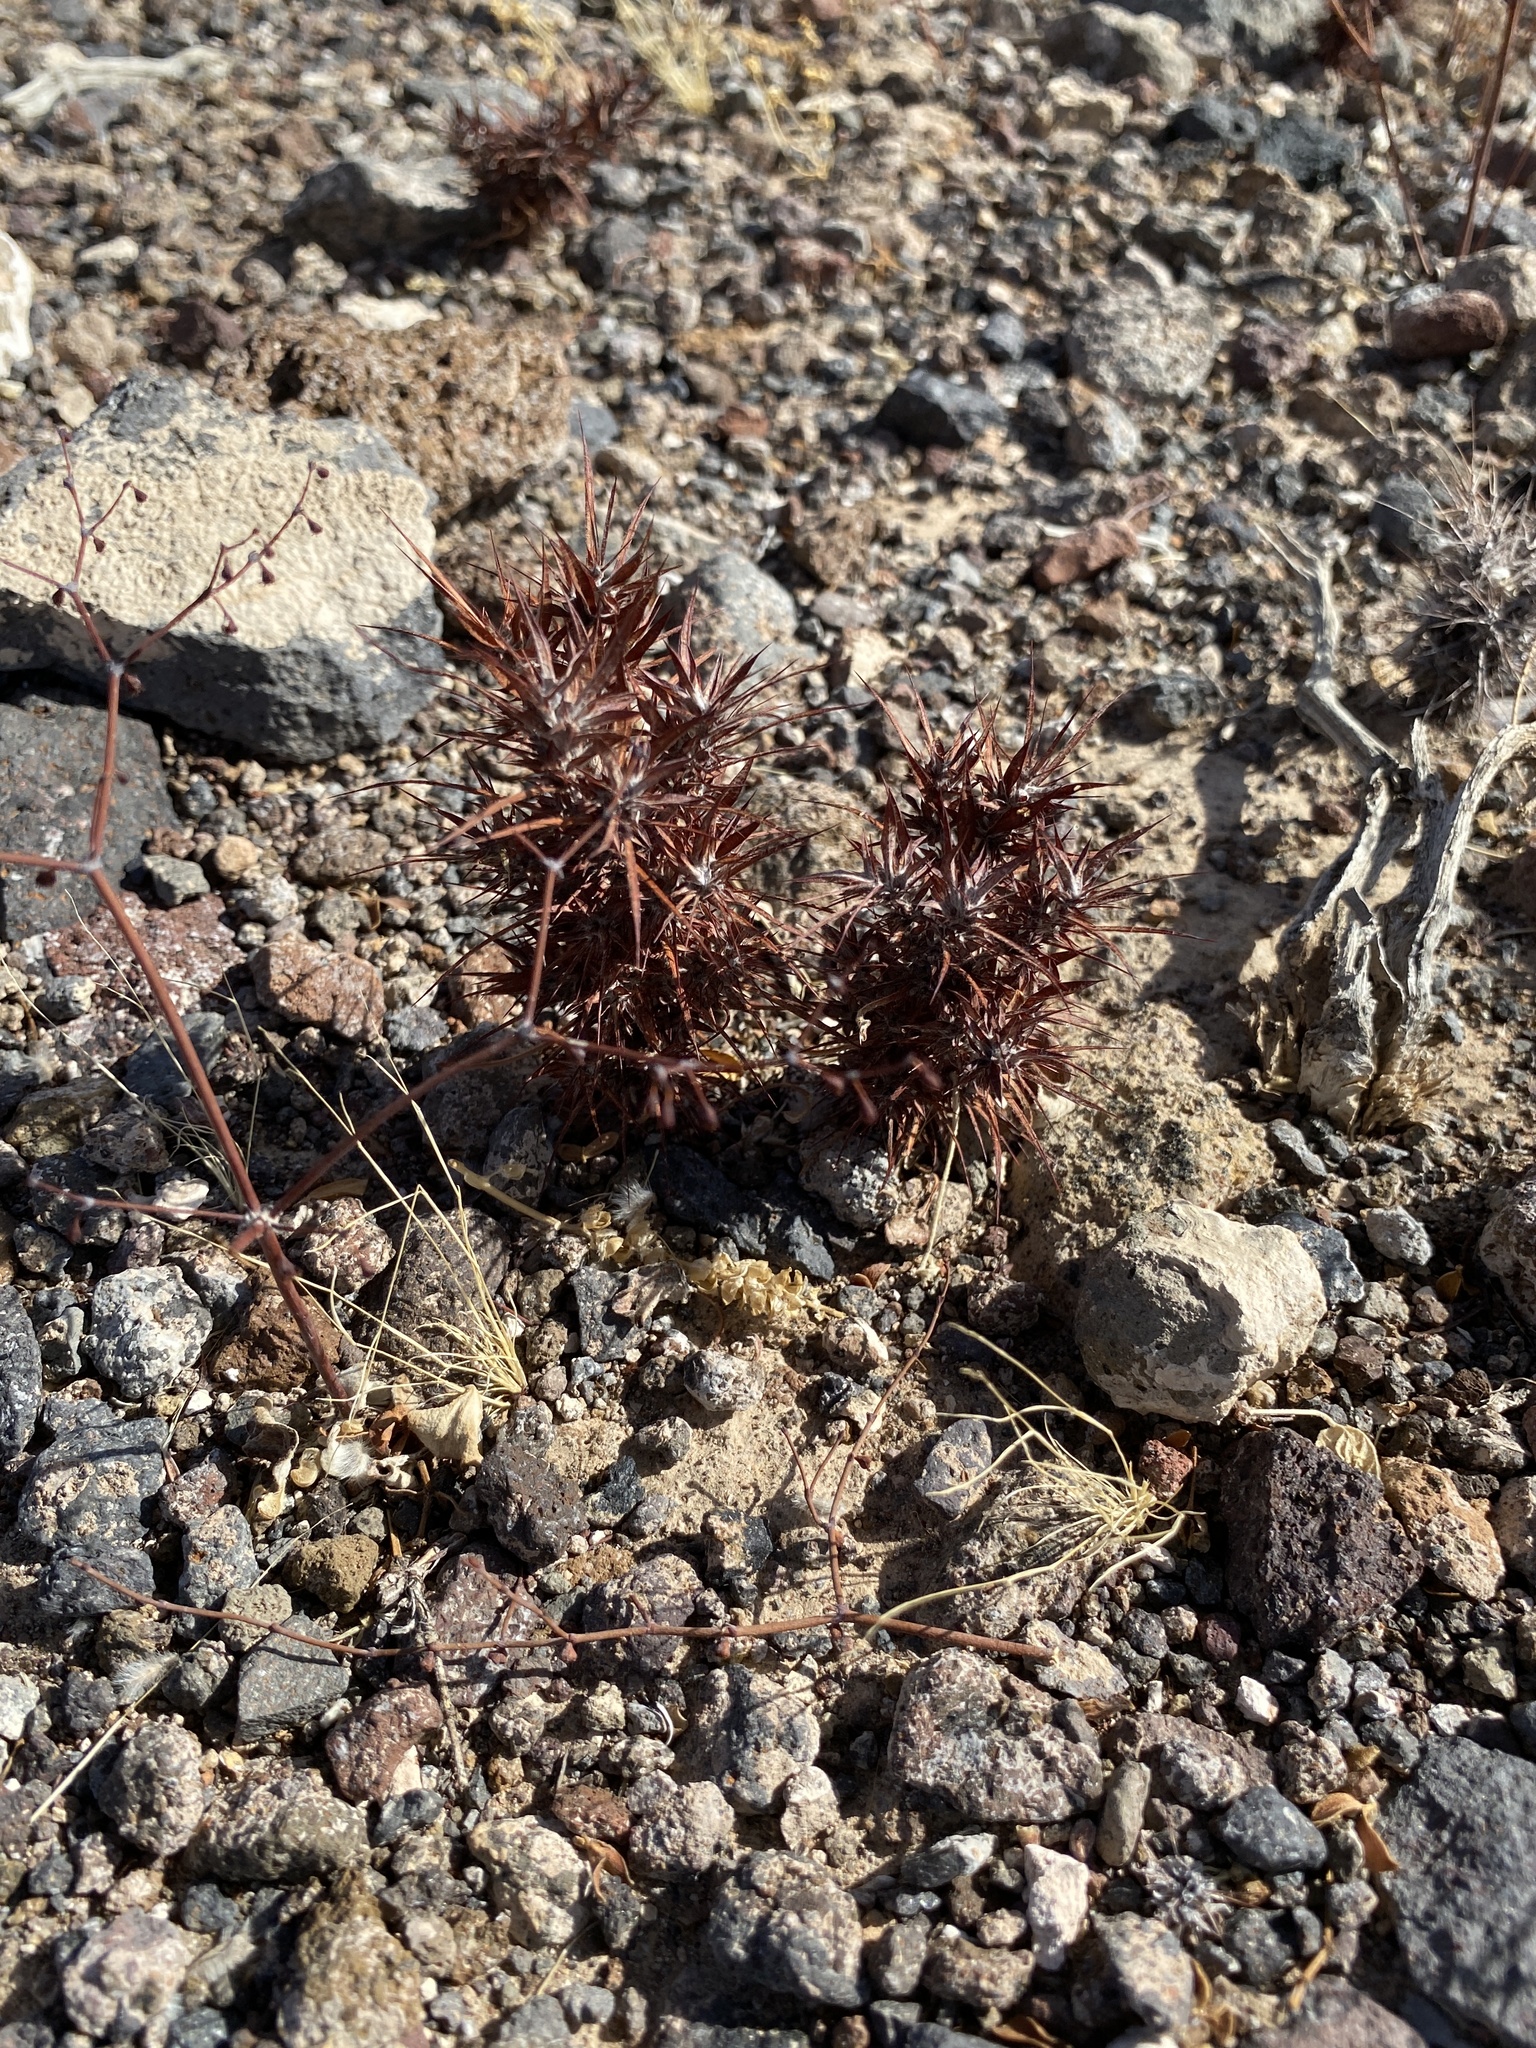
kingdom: Plantae
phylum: Tracheophyta
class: Magnoliopsida
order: Caryophyllales
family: Polygonaceae
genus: Chorizanthe
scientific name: Chorizanthe rigida
